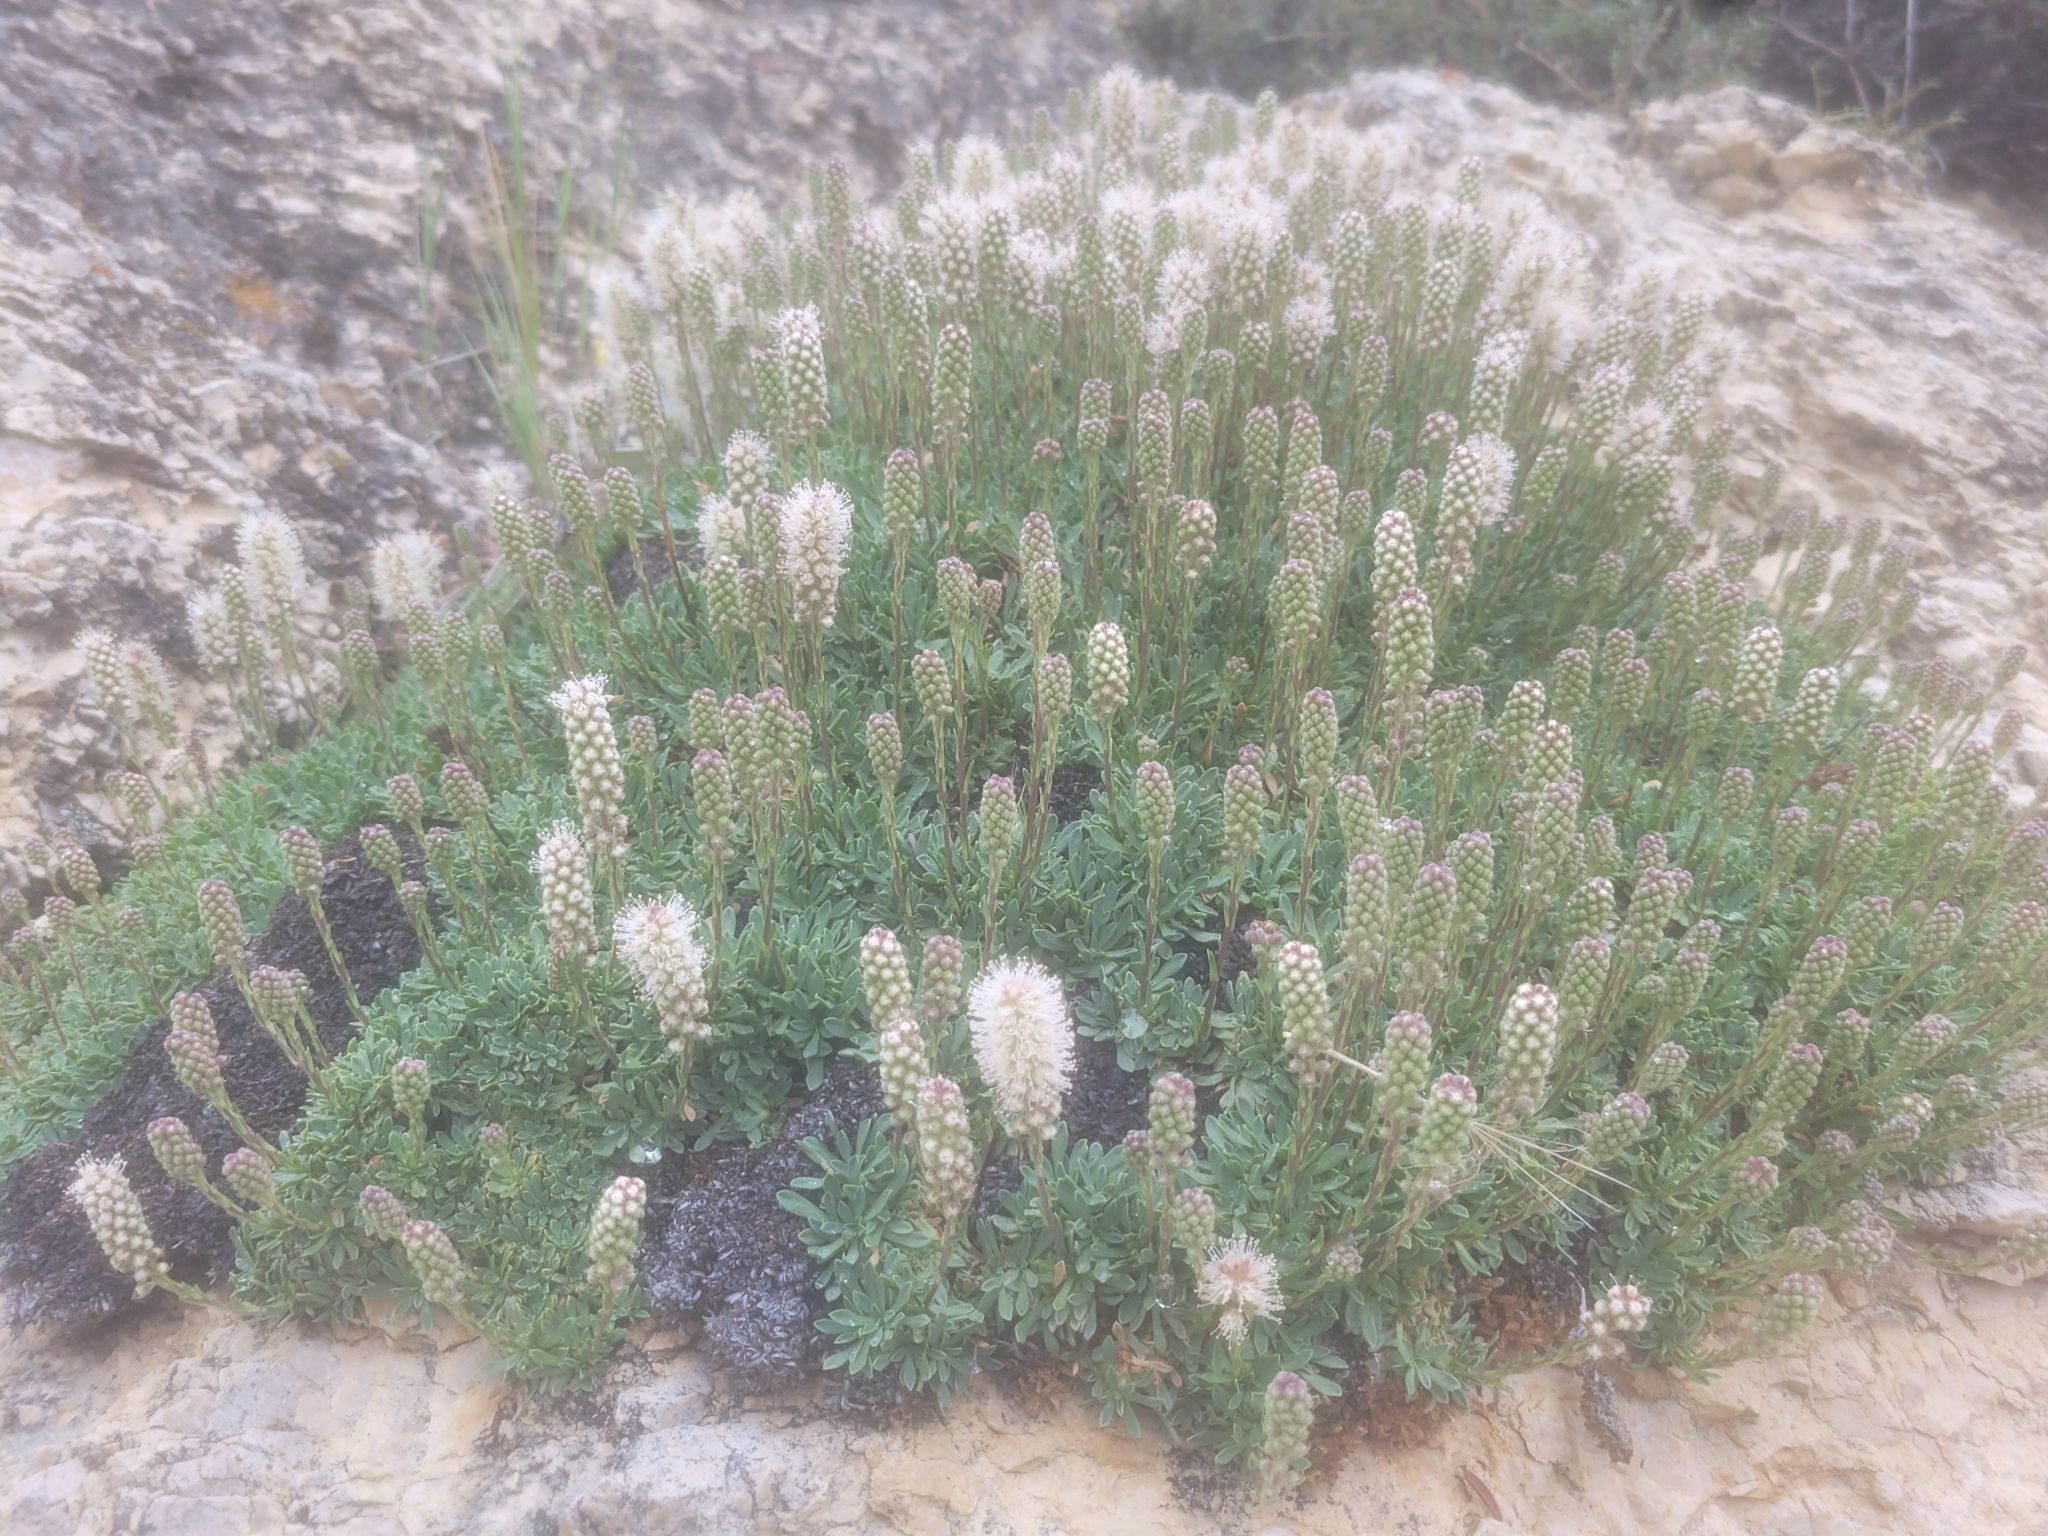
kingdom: Plantae
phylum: Tracheophyta
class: Magnoliopsida
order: Rosales
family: Rosaceae
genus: Petrophytum
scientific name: Petrophytum caespitosum
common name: Mat rockspirea
